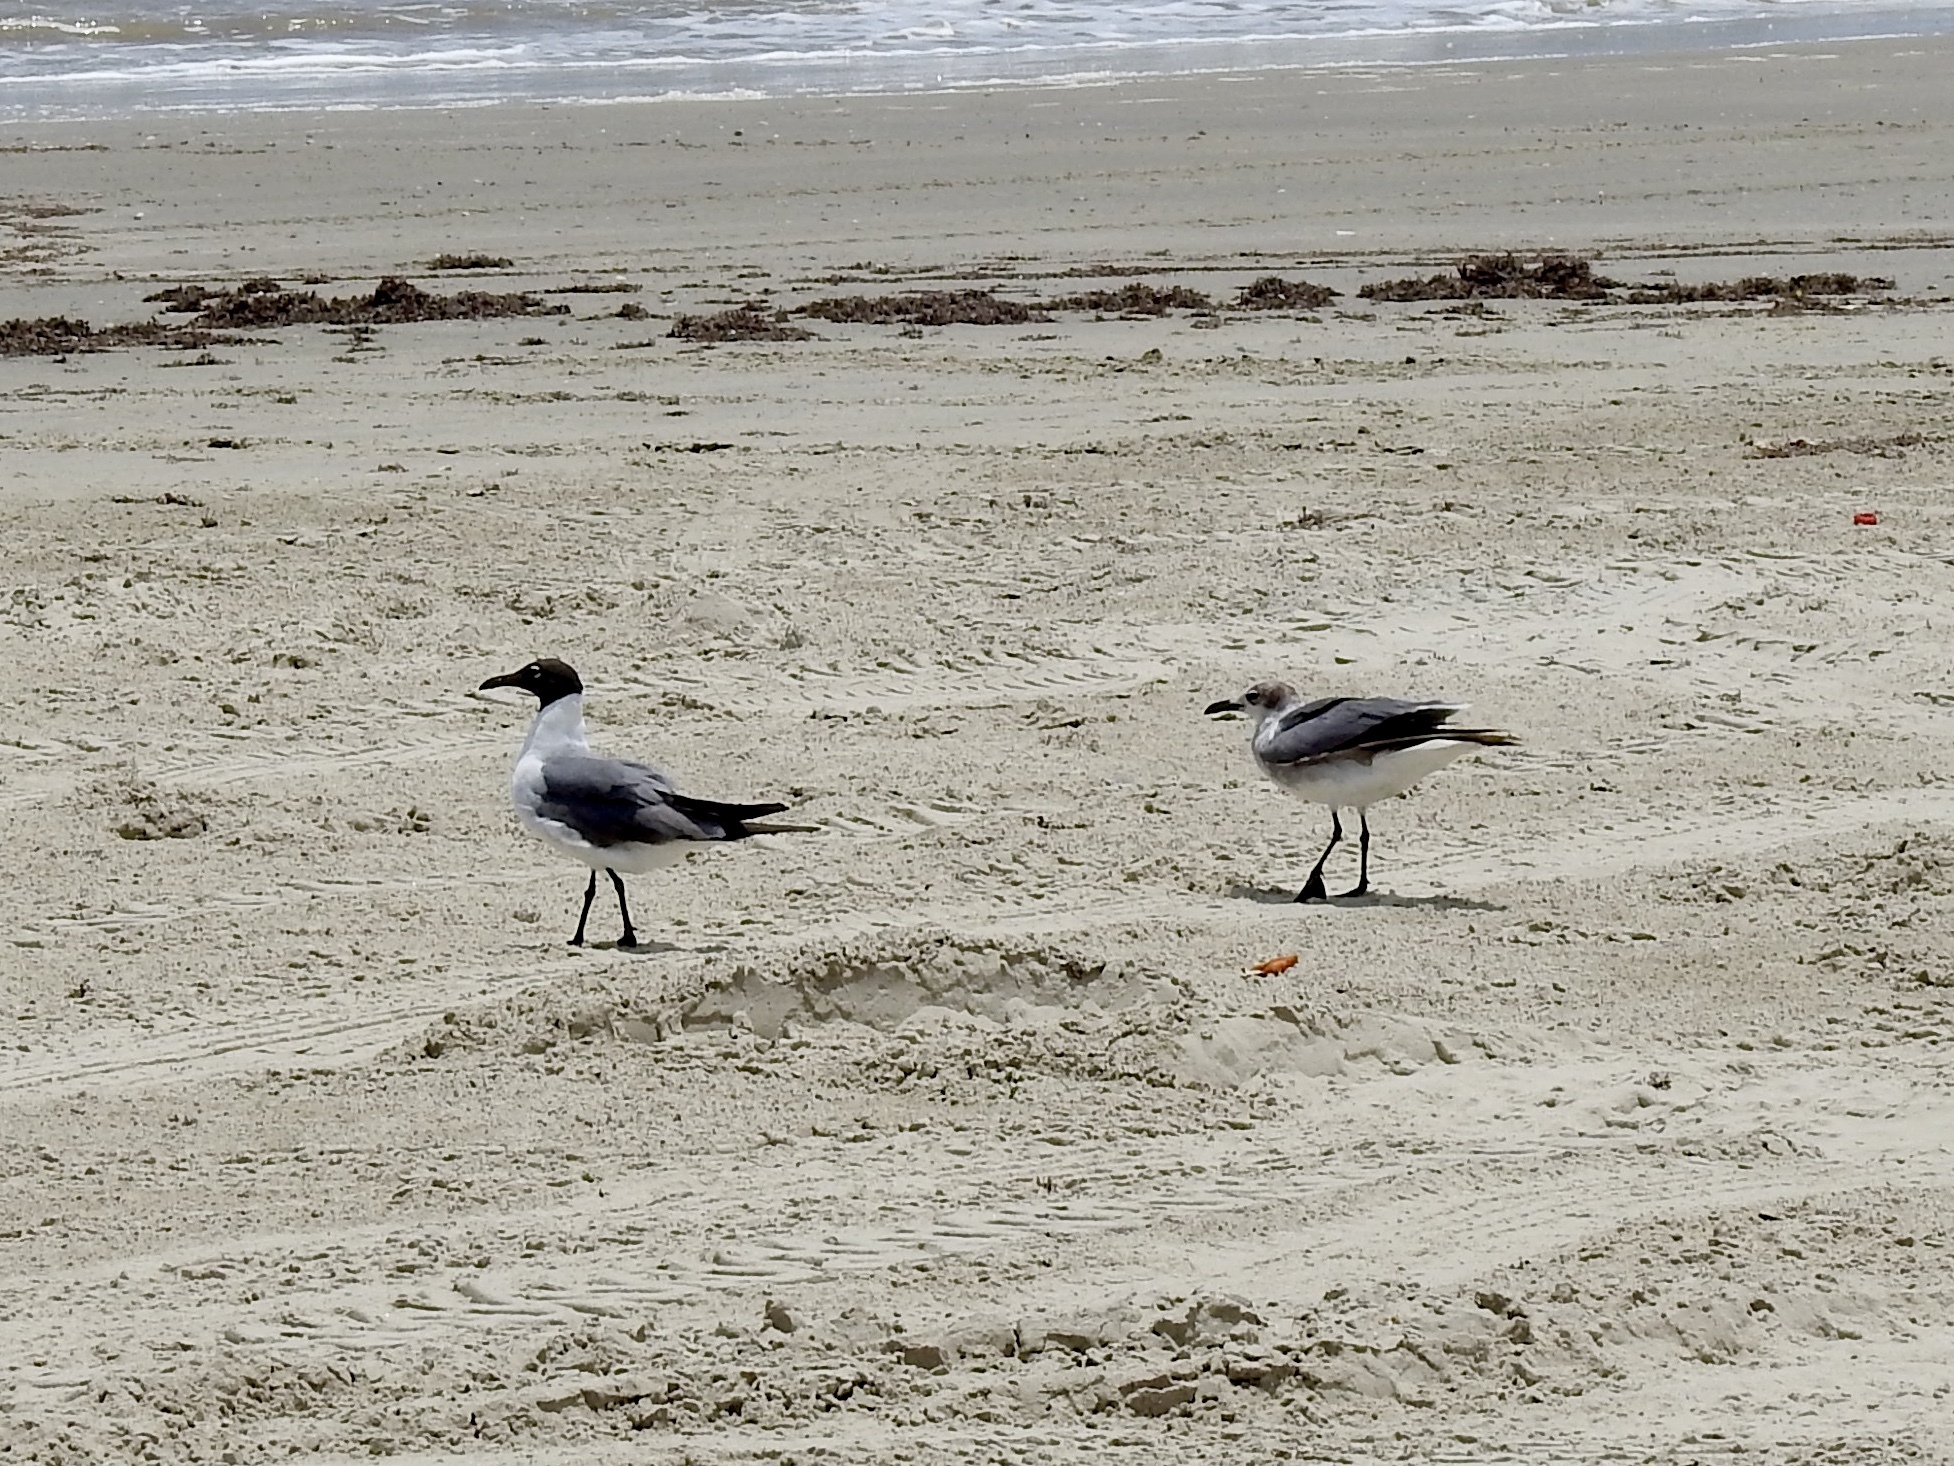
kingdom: Animalia
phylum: Chordata
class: Aves
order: Charadriiformes
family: Laridae
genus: Leucophaeus
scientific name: Leucophaeus atricilla
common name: Laughing gull
